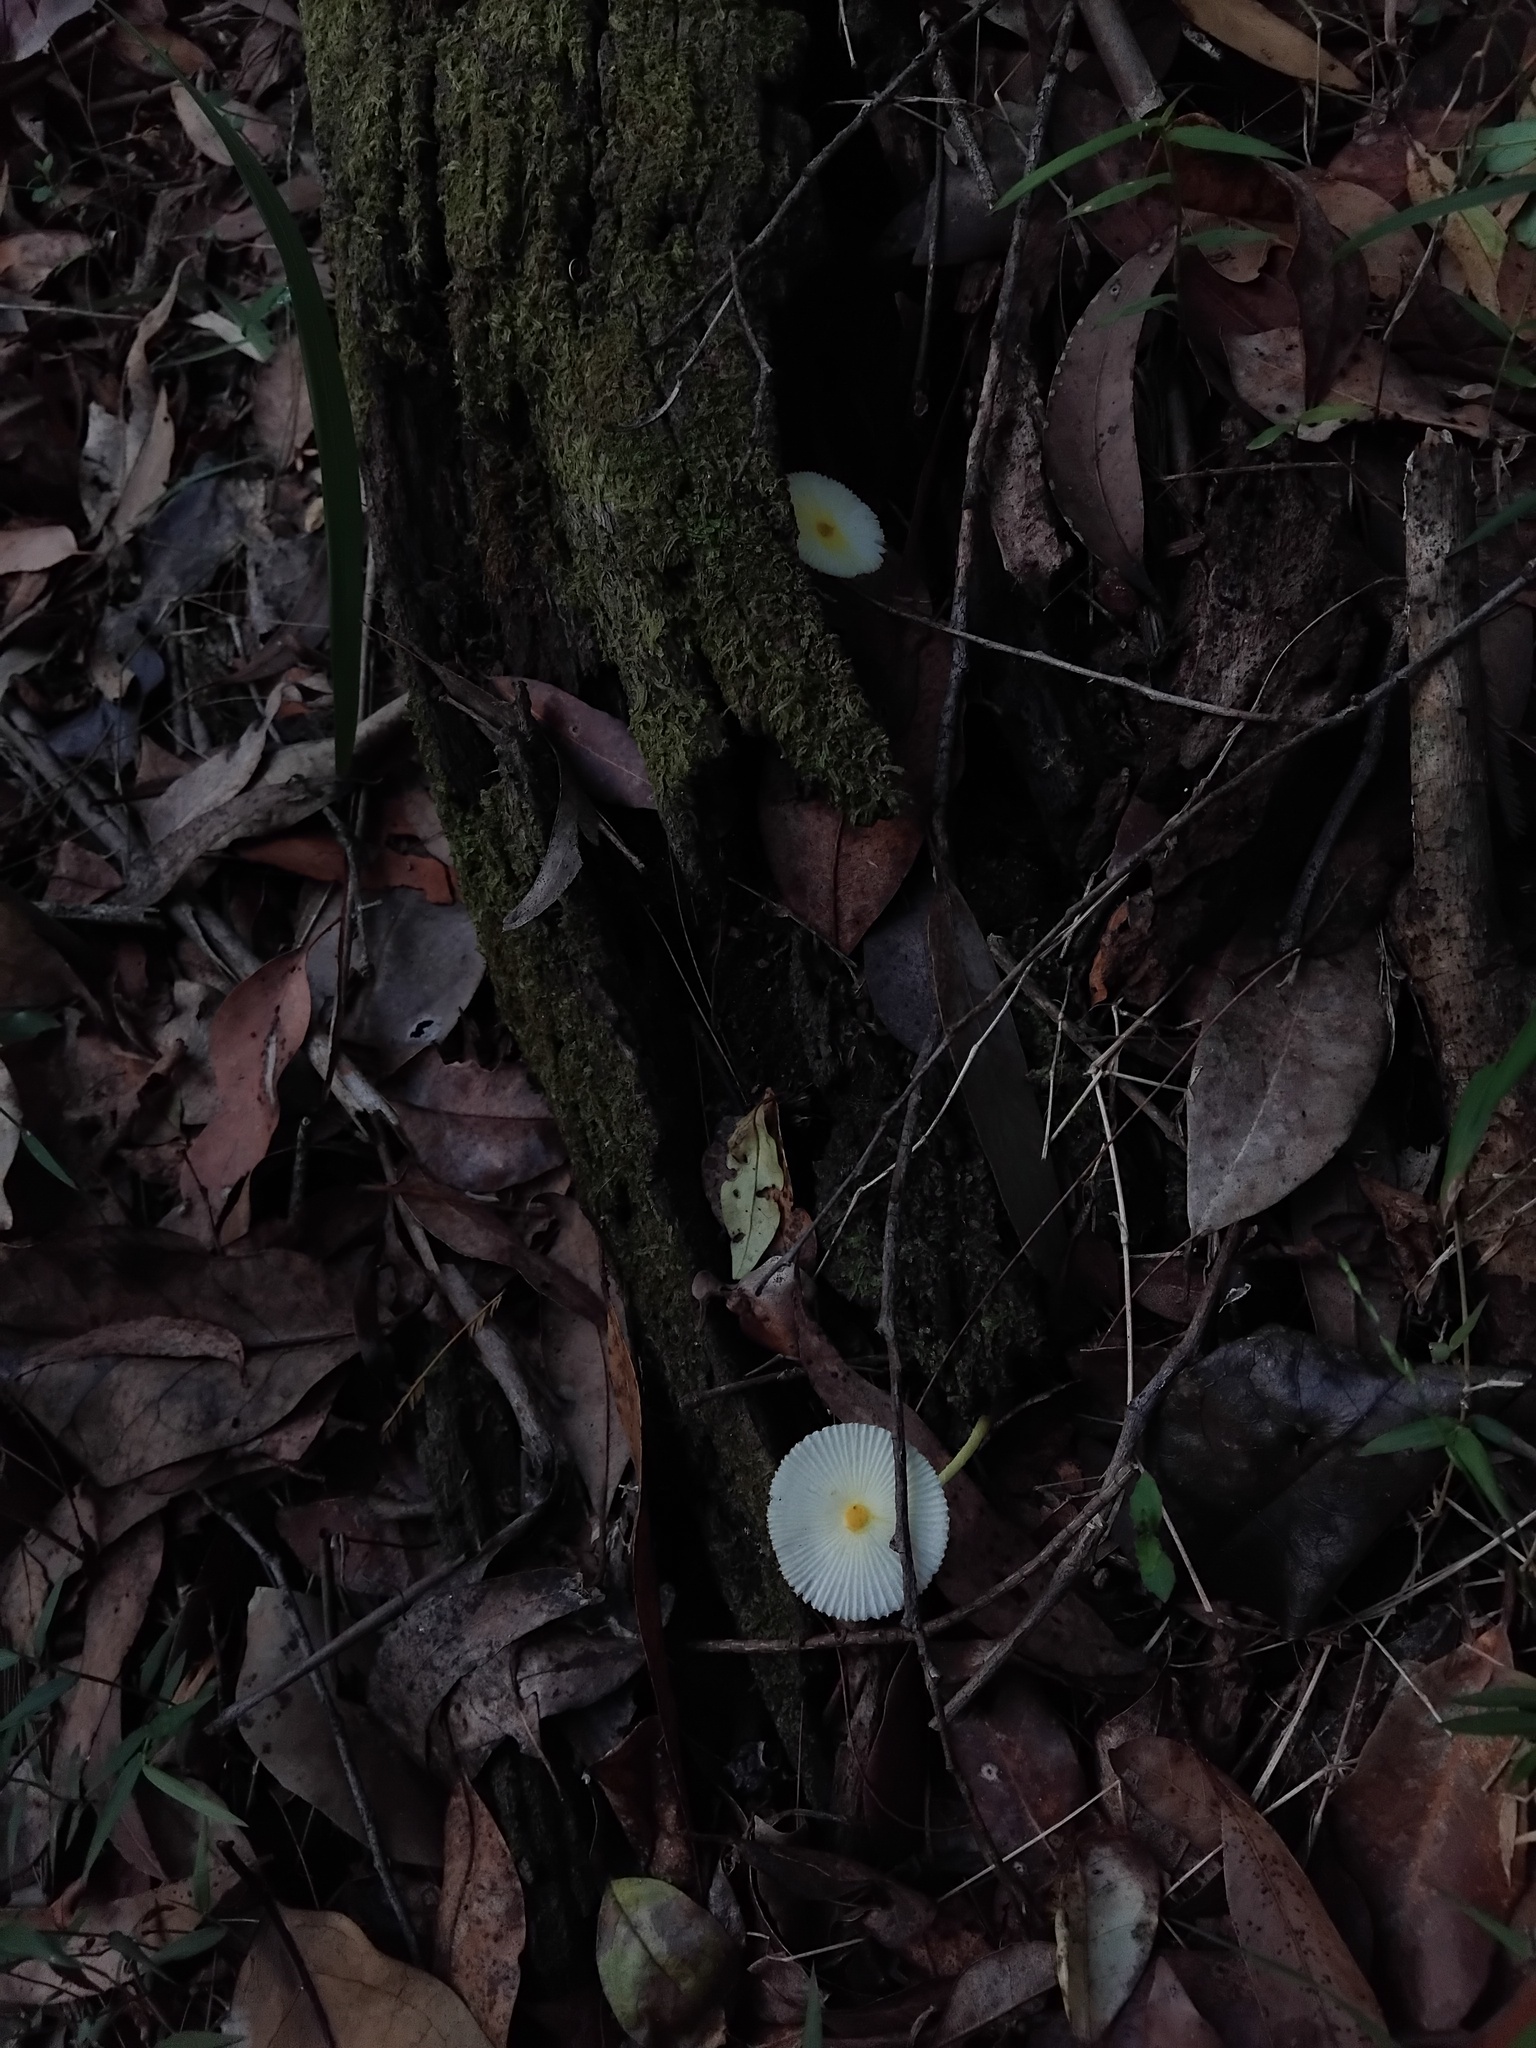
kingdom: Fungi
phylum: Basidiomycota
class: Agaricomycetes
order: Agaricales
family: Agaricaceae
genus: Leucocoprinus
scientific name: Leucocoprinus fragilissimus
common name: Fragile dapperling
